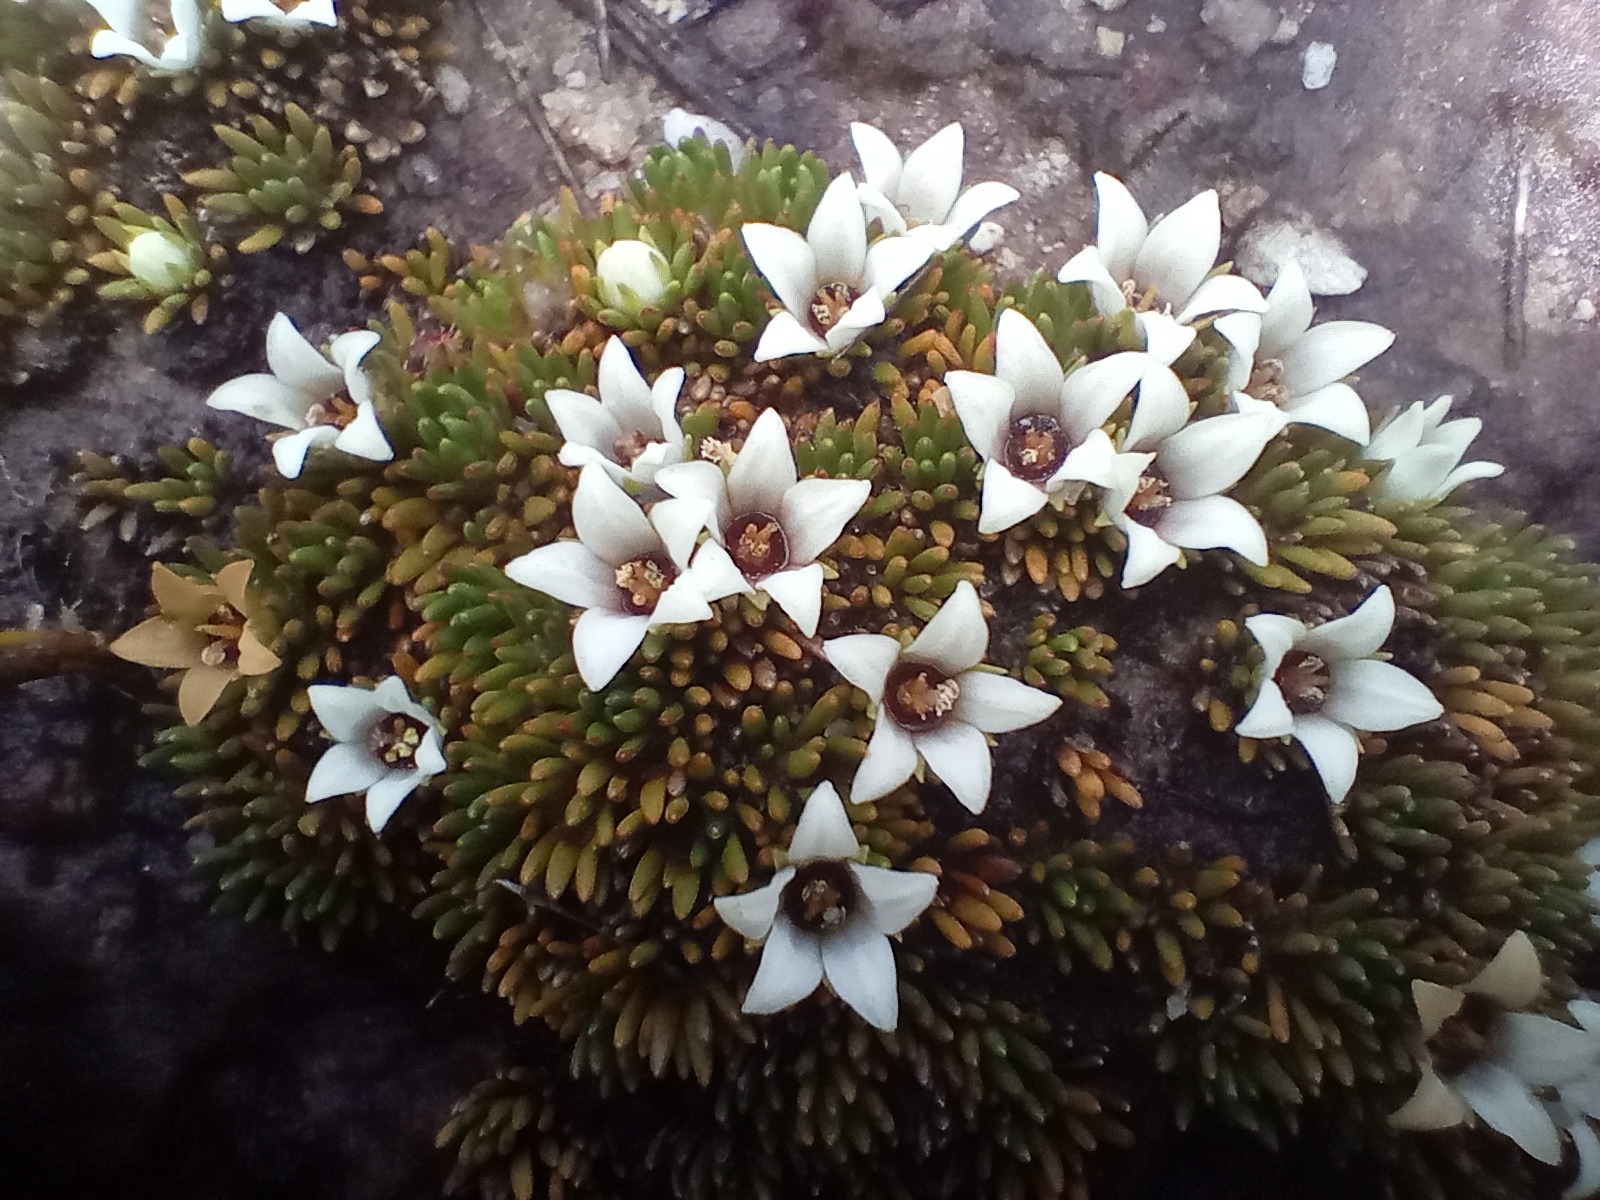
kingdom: Plantae
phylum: Tracheophyta
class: Magnoliopsida
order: Asterales
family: Stylidiaceae
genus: Donatia
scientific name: Donatia novae-zelandiae
